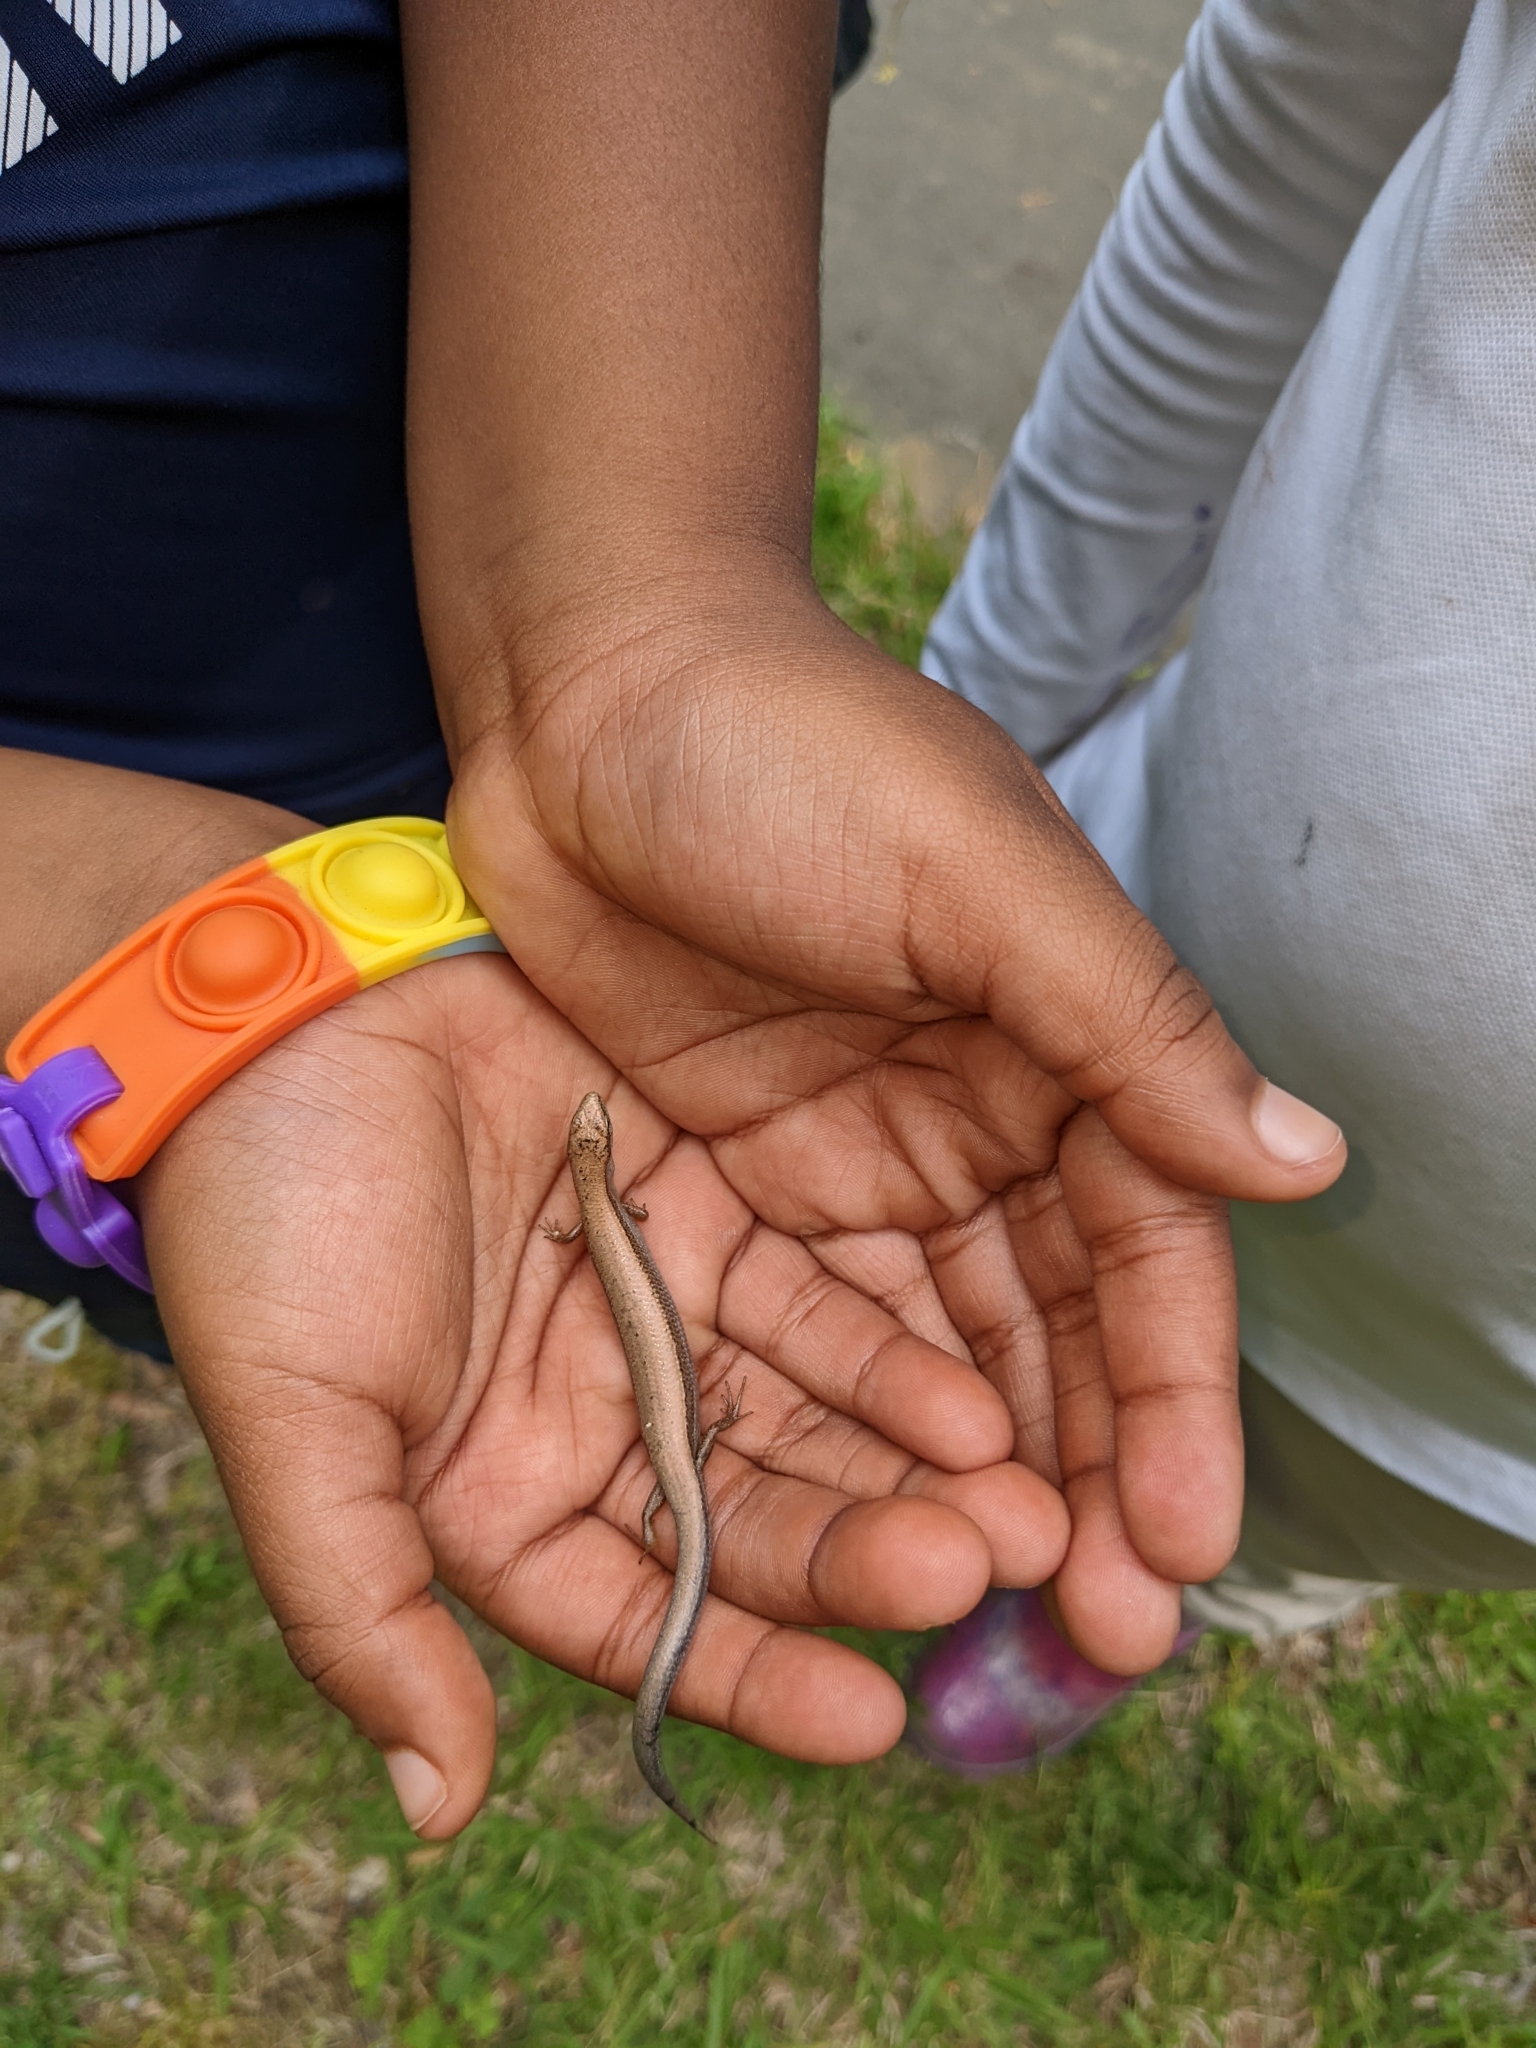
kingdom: Animalia
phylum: Chordata
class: Squamata
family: Scincidae
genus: Scincella
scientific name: Scincella lateralis
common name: Ground skink
